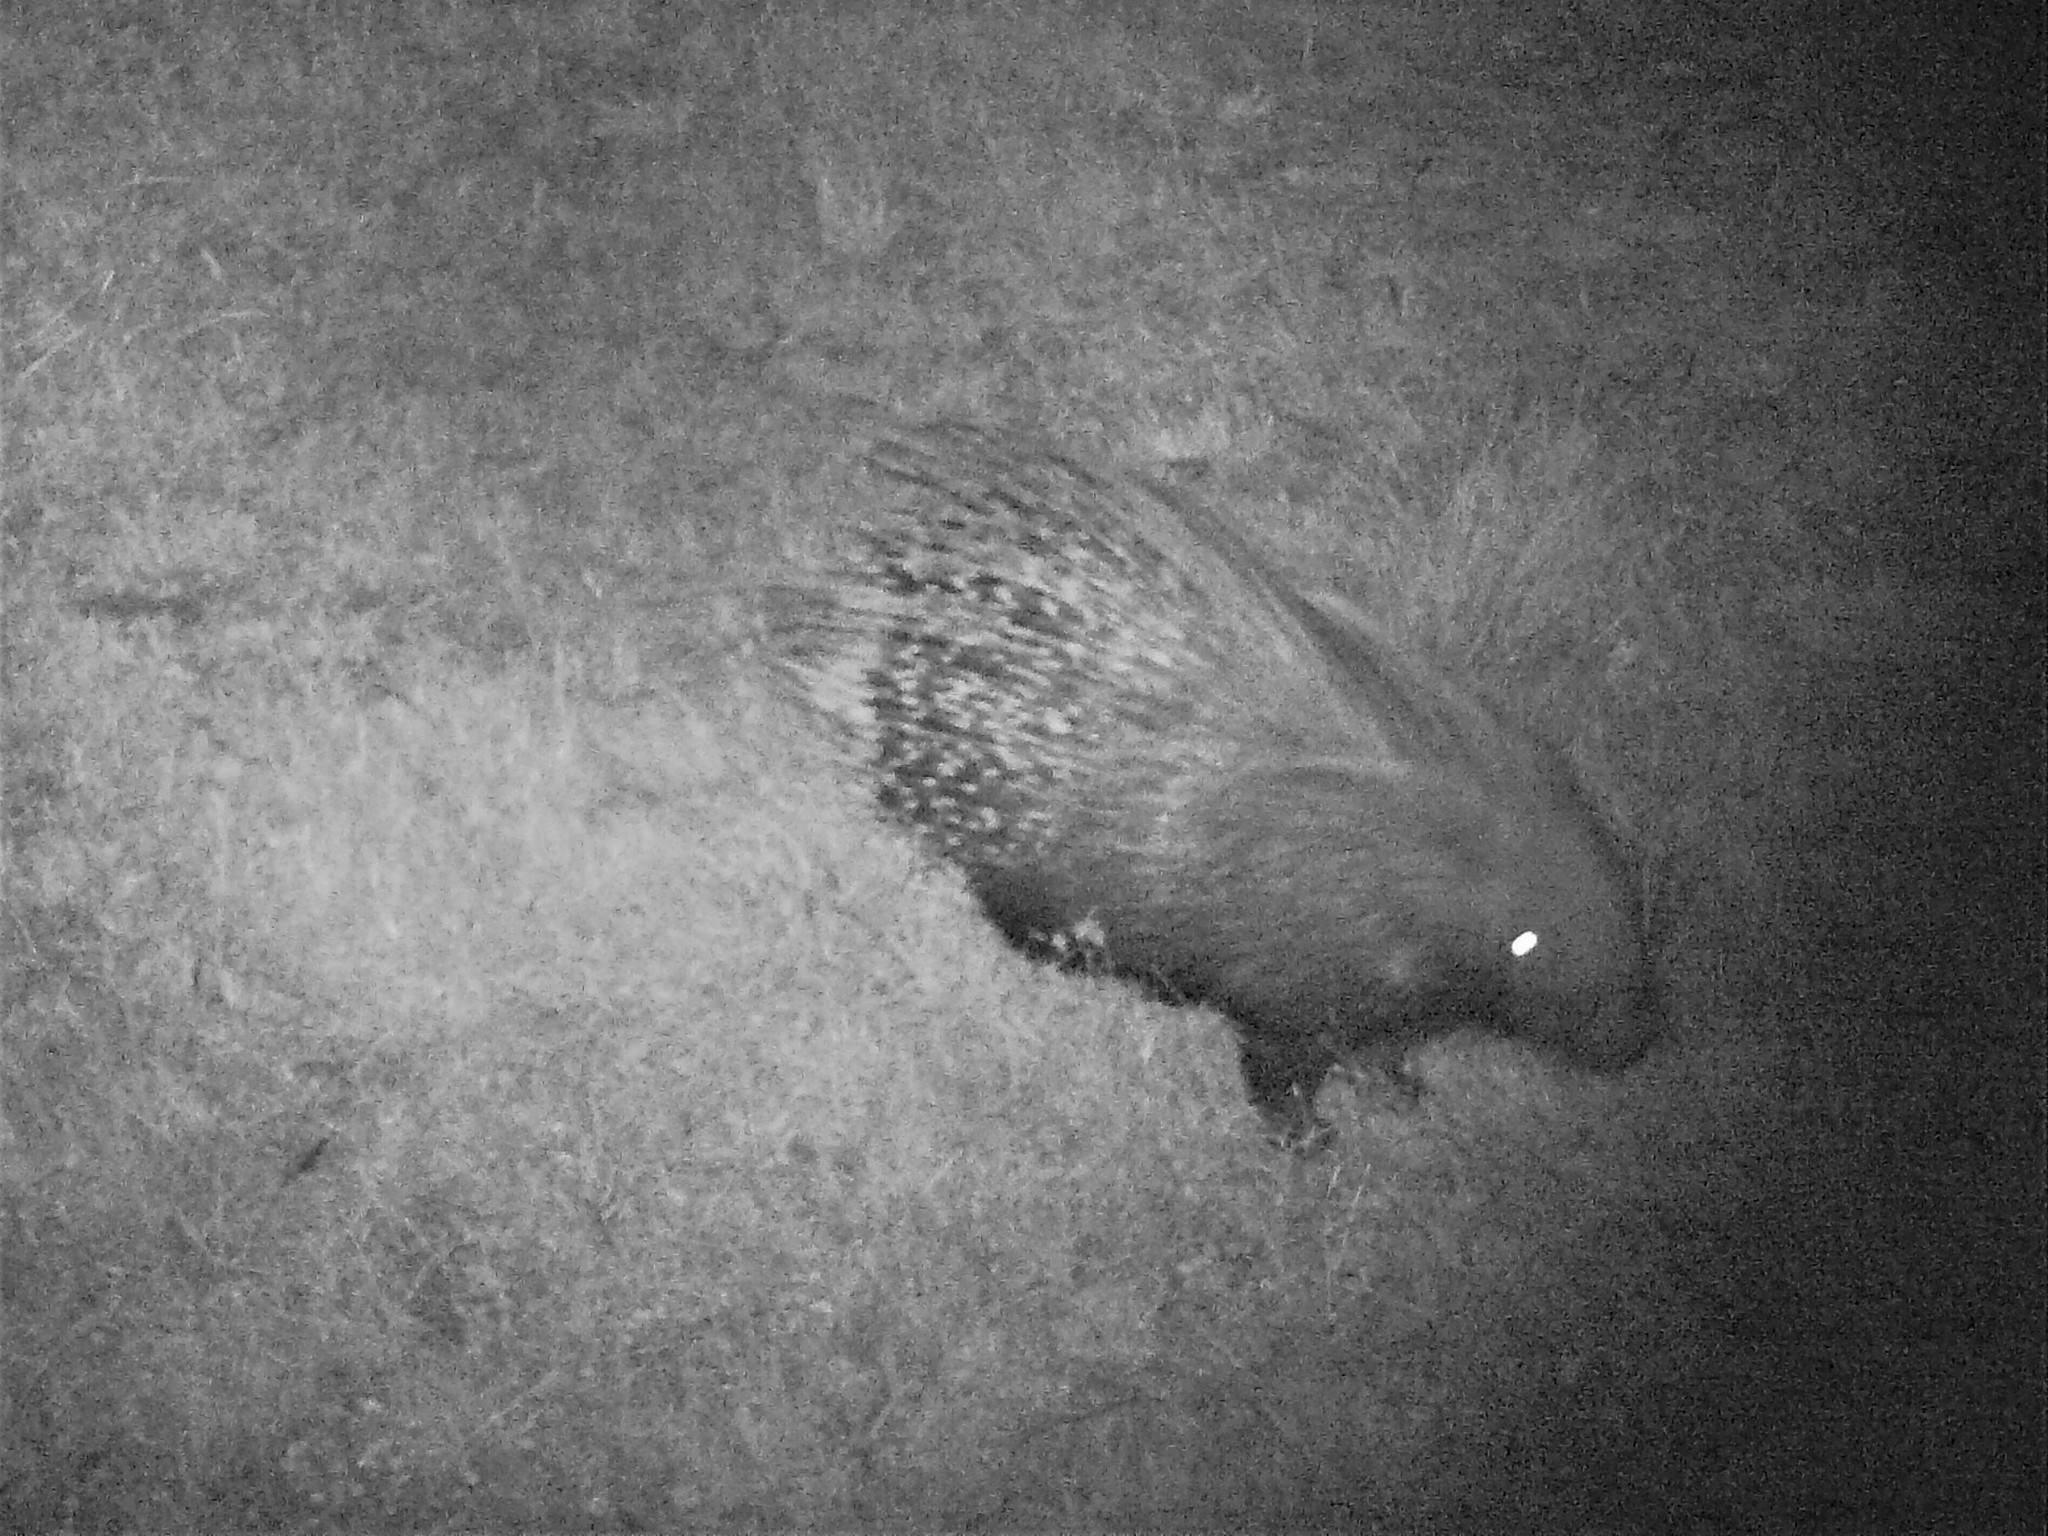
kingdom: Animalia
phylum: Chordata
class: Mammalia
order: Rodentia
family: Hystricidae
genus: Hystrix
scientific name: Hystrix africaeaustralis
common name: Cape porcupine
